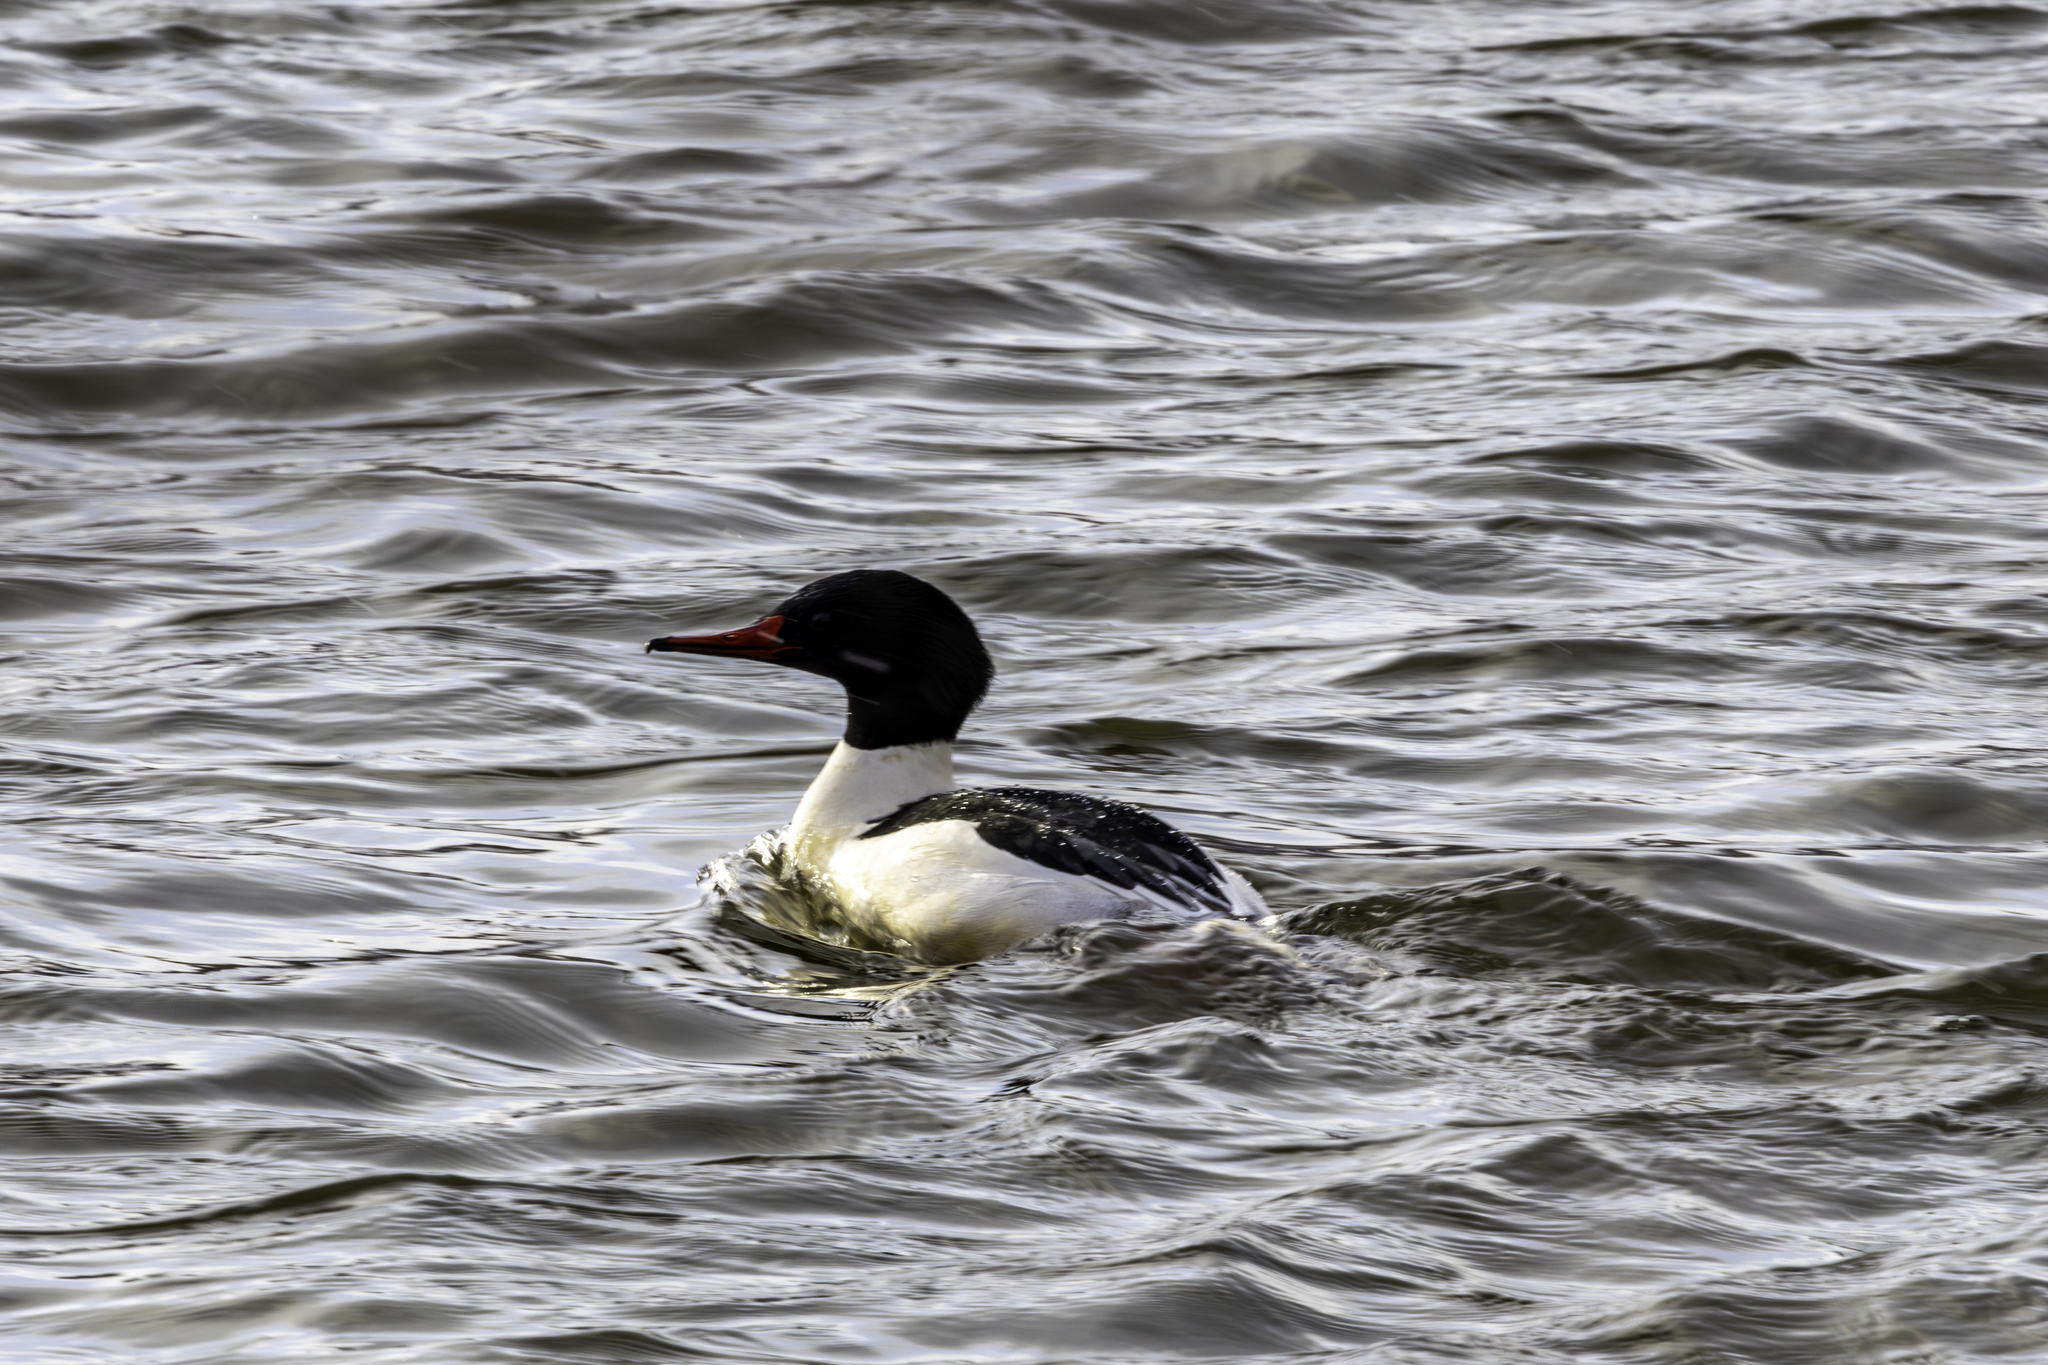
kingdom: Animalia
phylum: Chordata
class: Aves
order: Anseriformes
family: Anatidae
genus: Mergus
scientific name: Mergus merganser
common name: Common merganser
